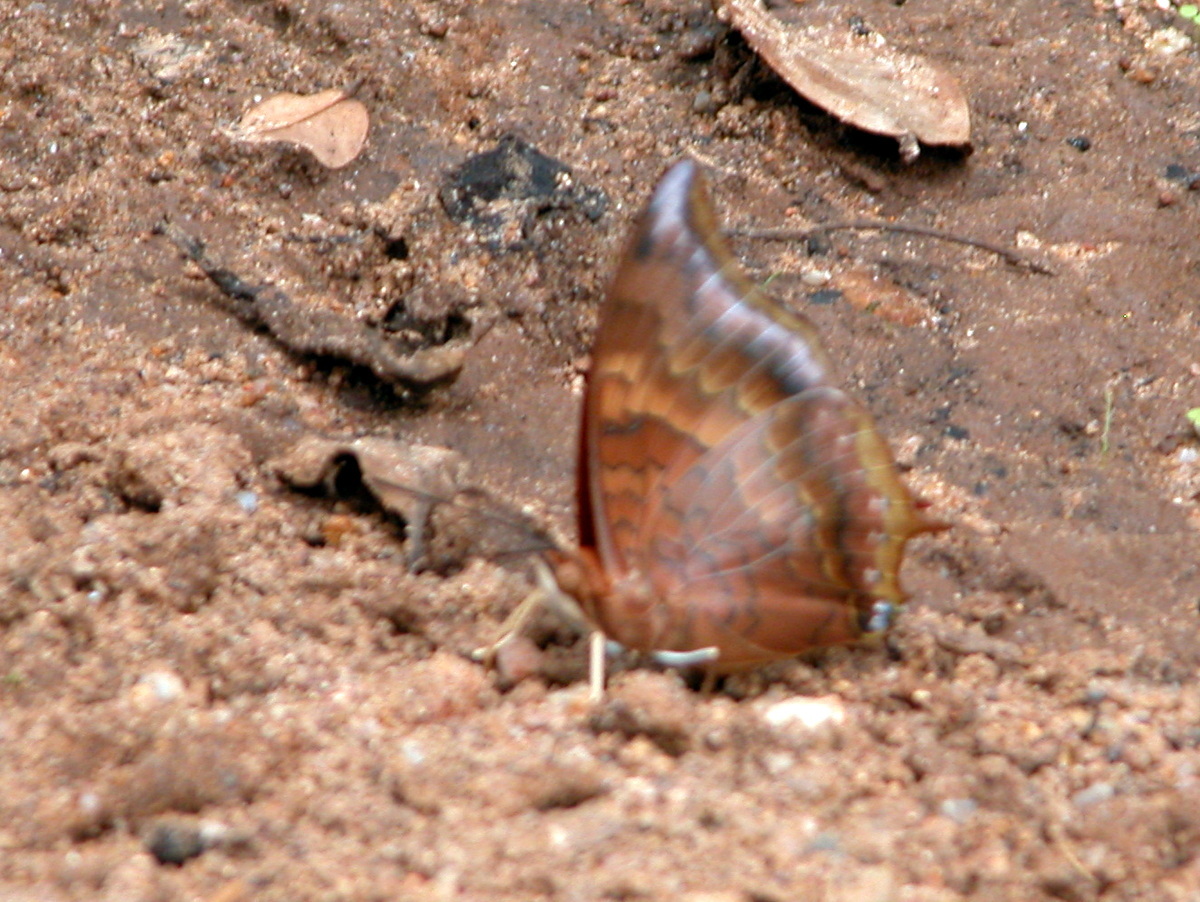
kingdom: Animalia
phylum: Arthropoda
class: Insecta
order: Lepidoptera
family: Nymphalidae
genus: Charaxes
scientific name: Charaxes bernardus
